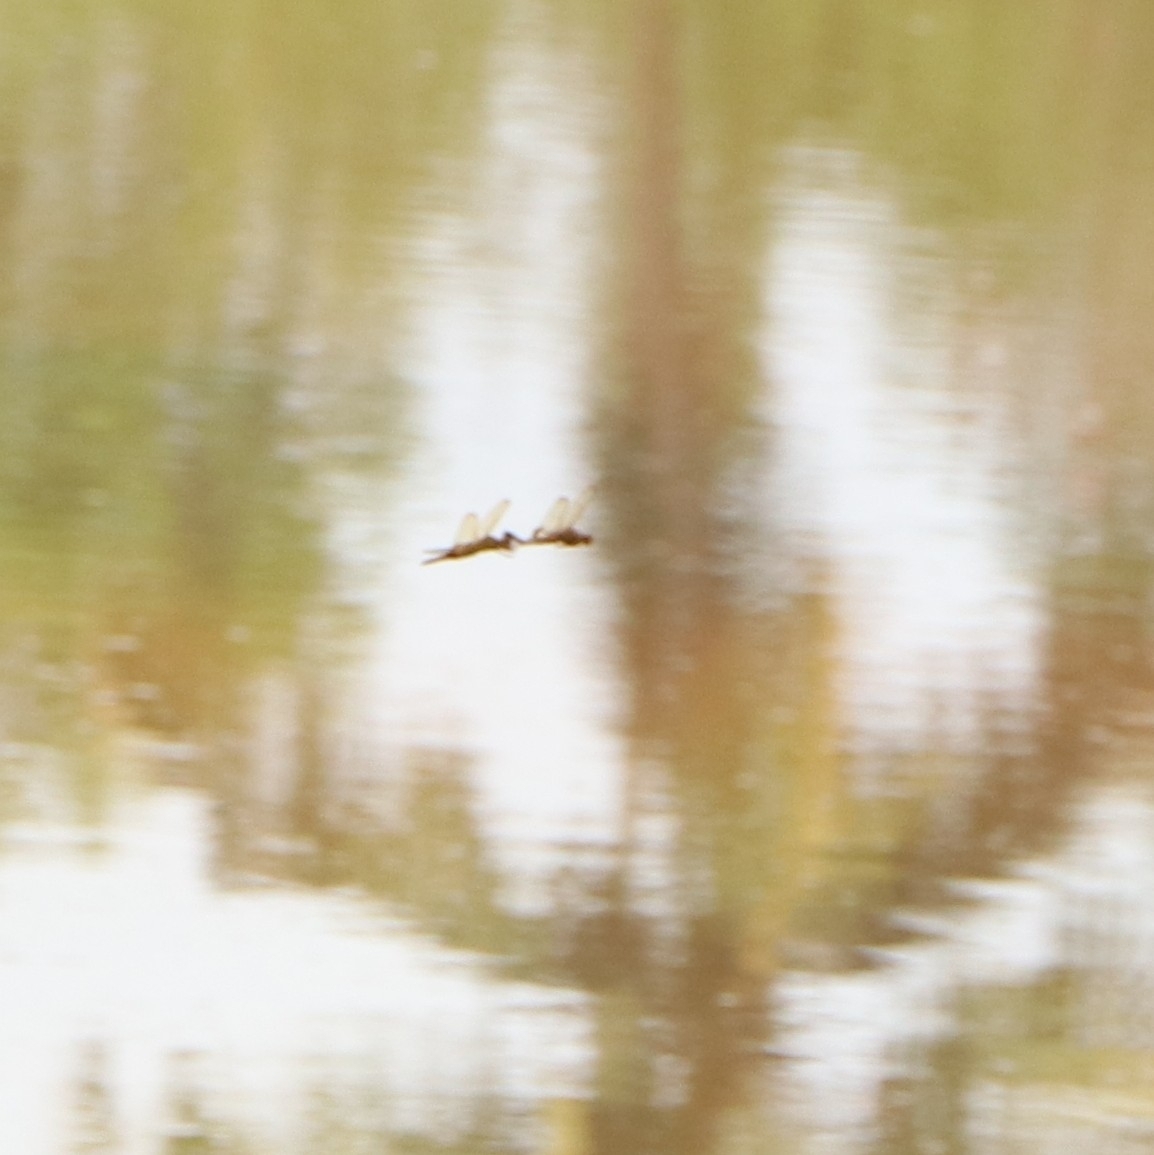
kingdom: Animalia
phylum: Arthropoda
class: Insecta
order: Odonata
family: Libellulidae
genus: Hydrobasileus
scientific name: Hydrobasileus croceus
